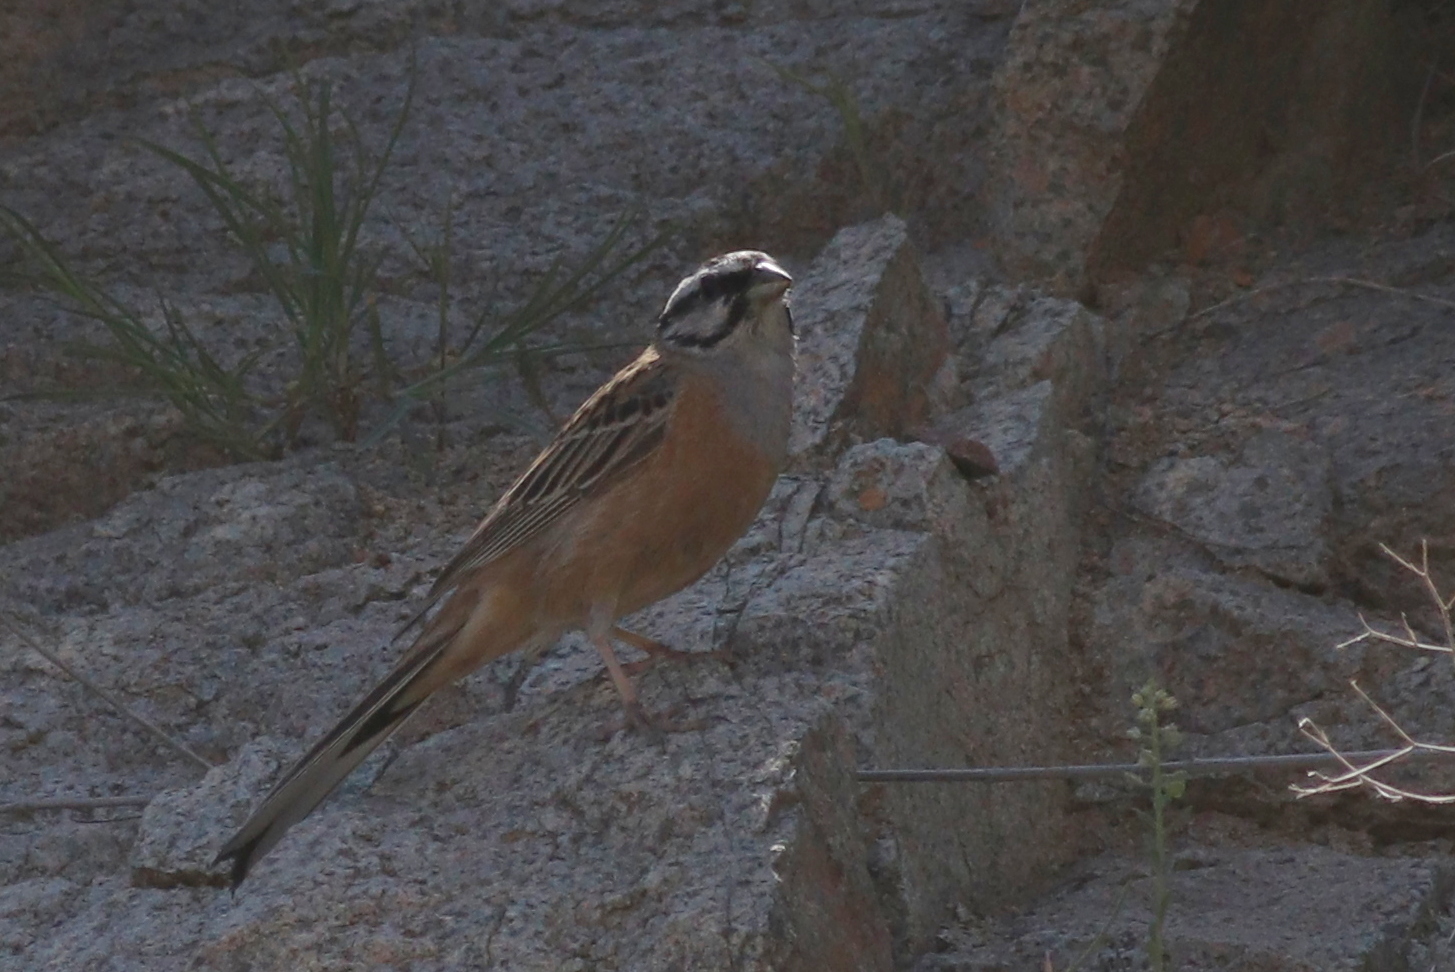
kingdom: Animalia
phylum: Chordata
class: Aves
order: Passeriformes
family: Emberizidae
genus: Emberiza
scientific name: Emberiza cia
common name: Rock bunting
